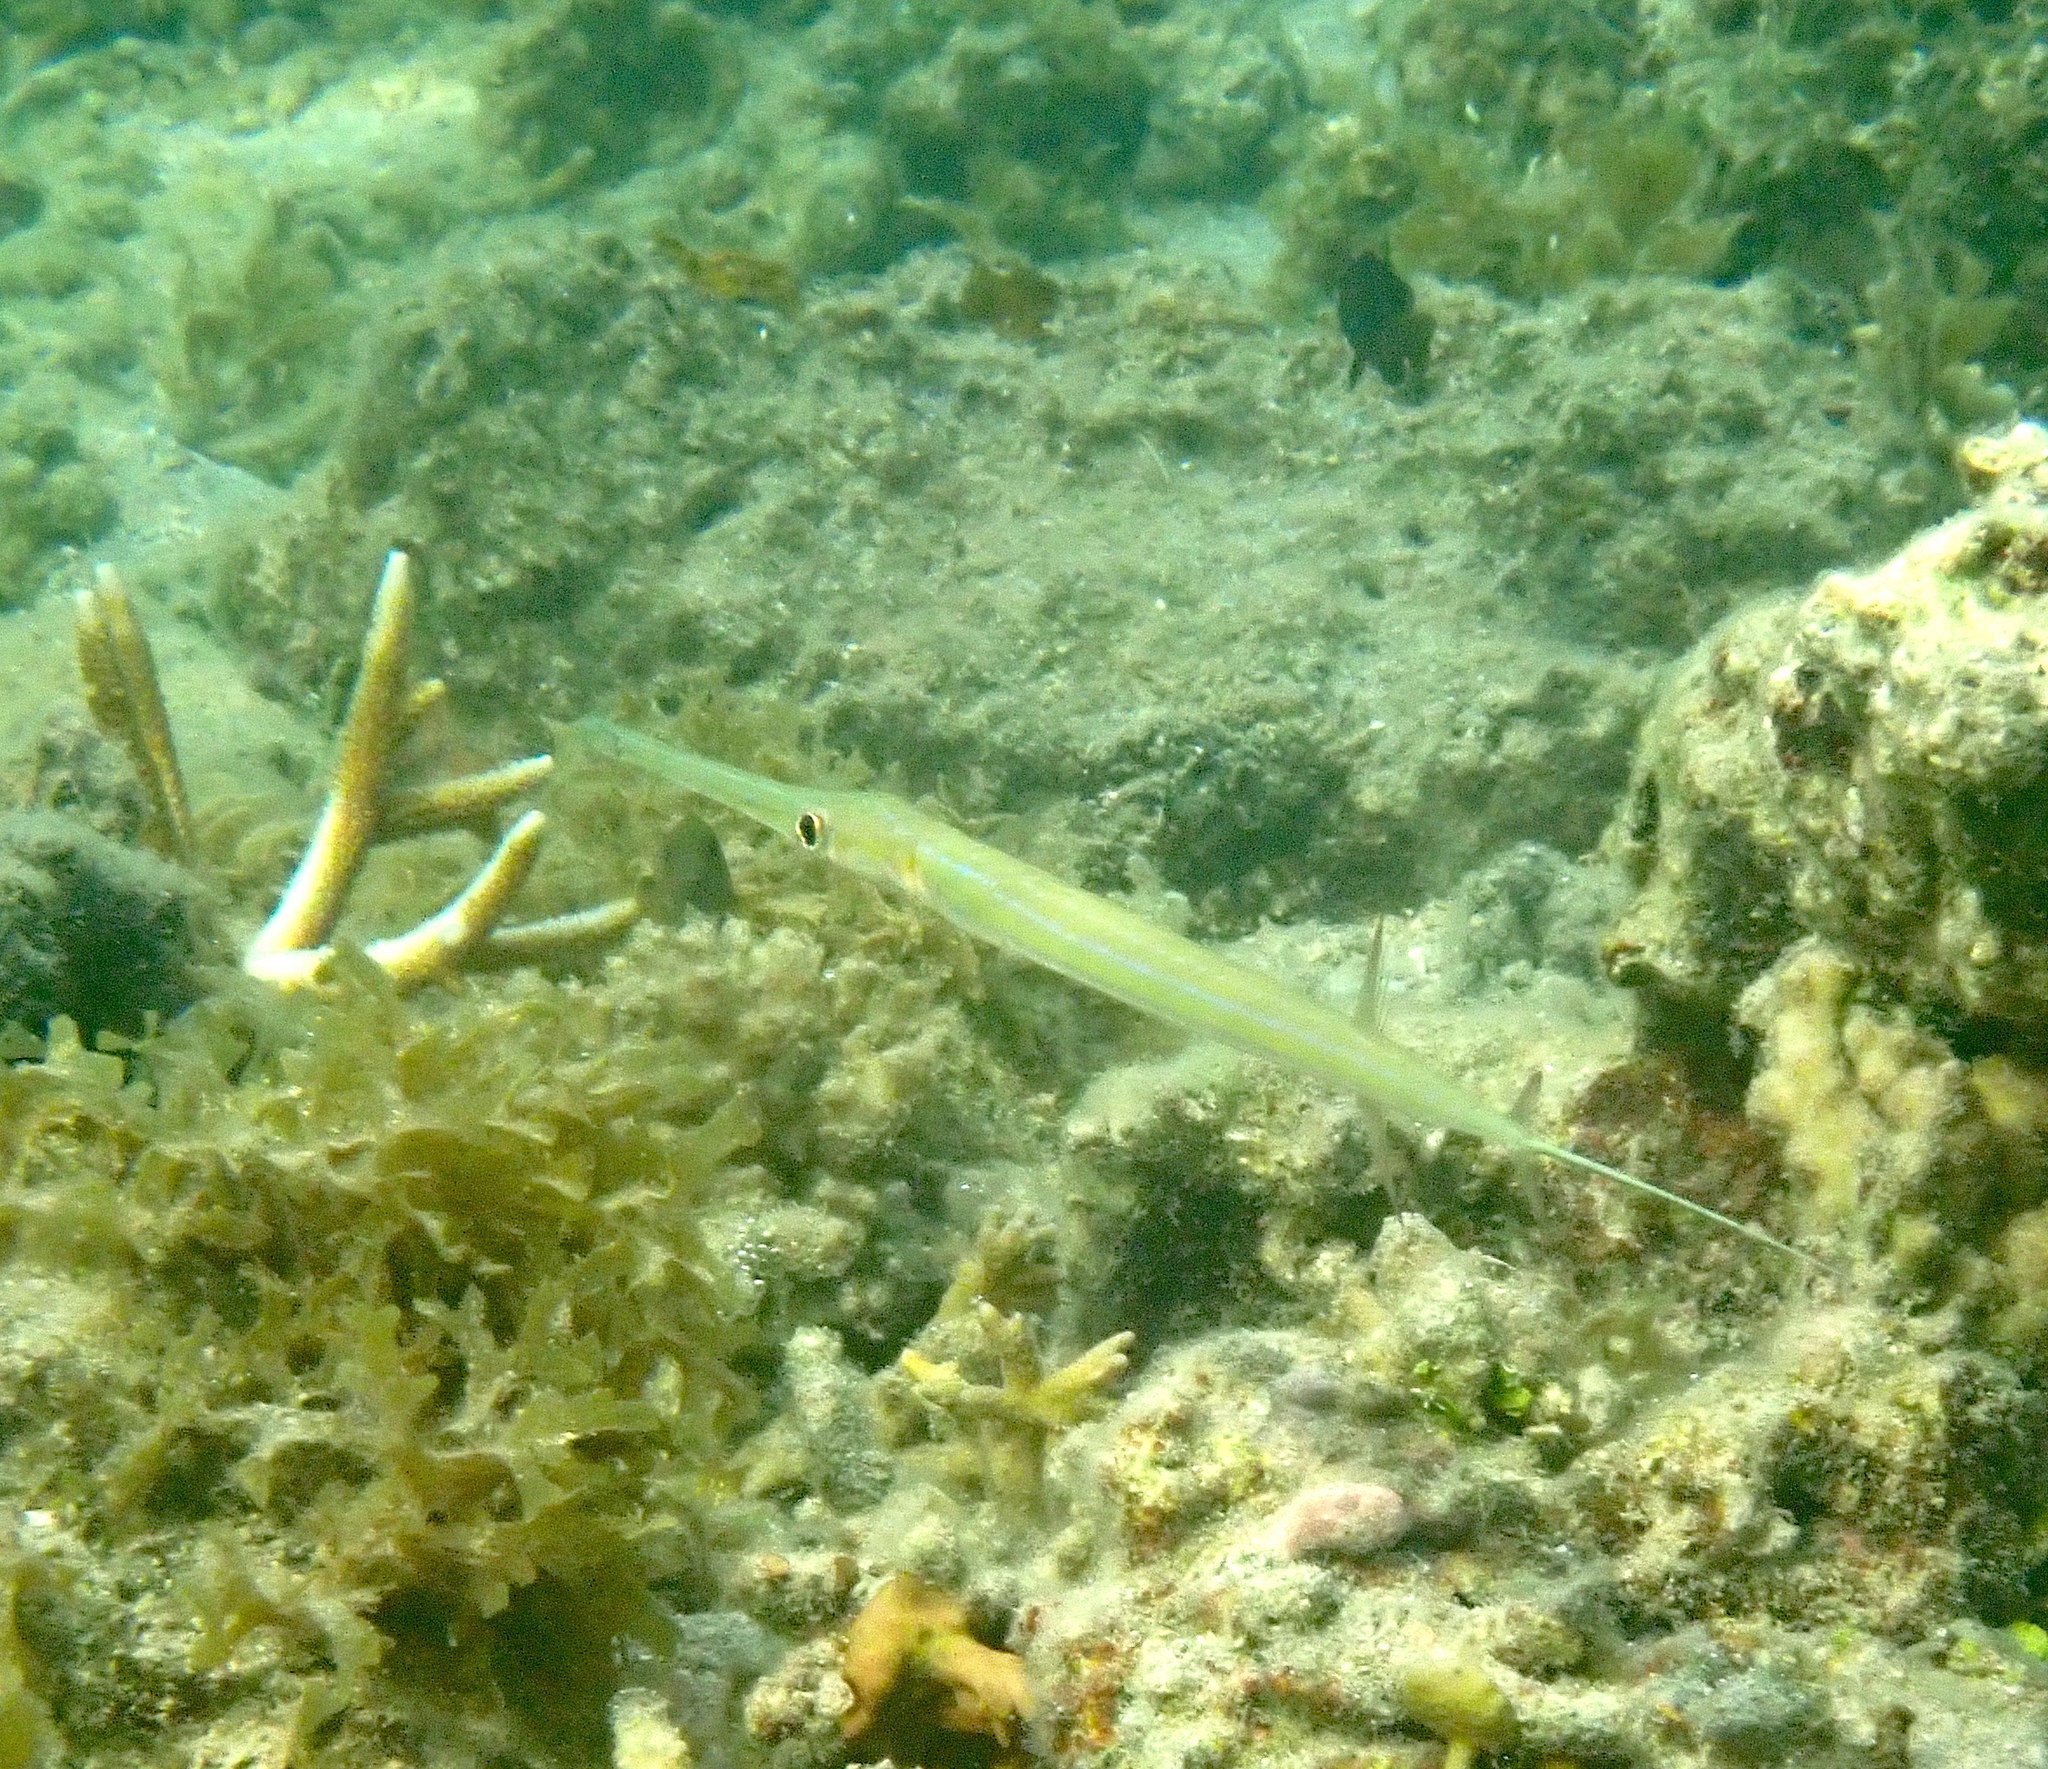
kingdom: Animalia
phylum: Chordata
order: Syngnathiformes
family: Fistulariidae
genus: Fistularia
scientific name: Fistularia commersonii
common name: Bluespotted cornetfish
